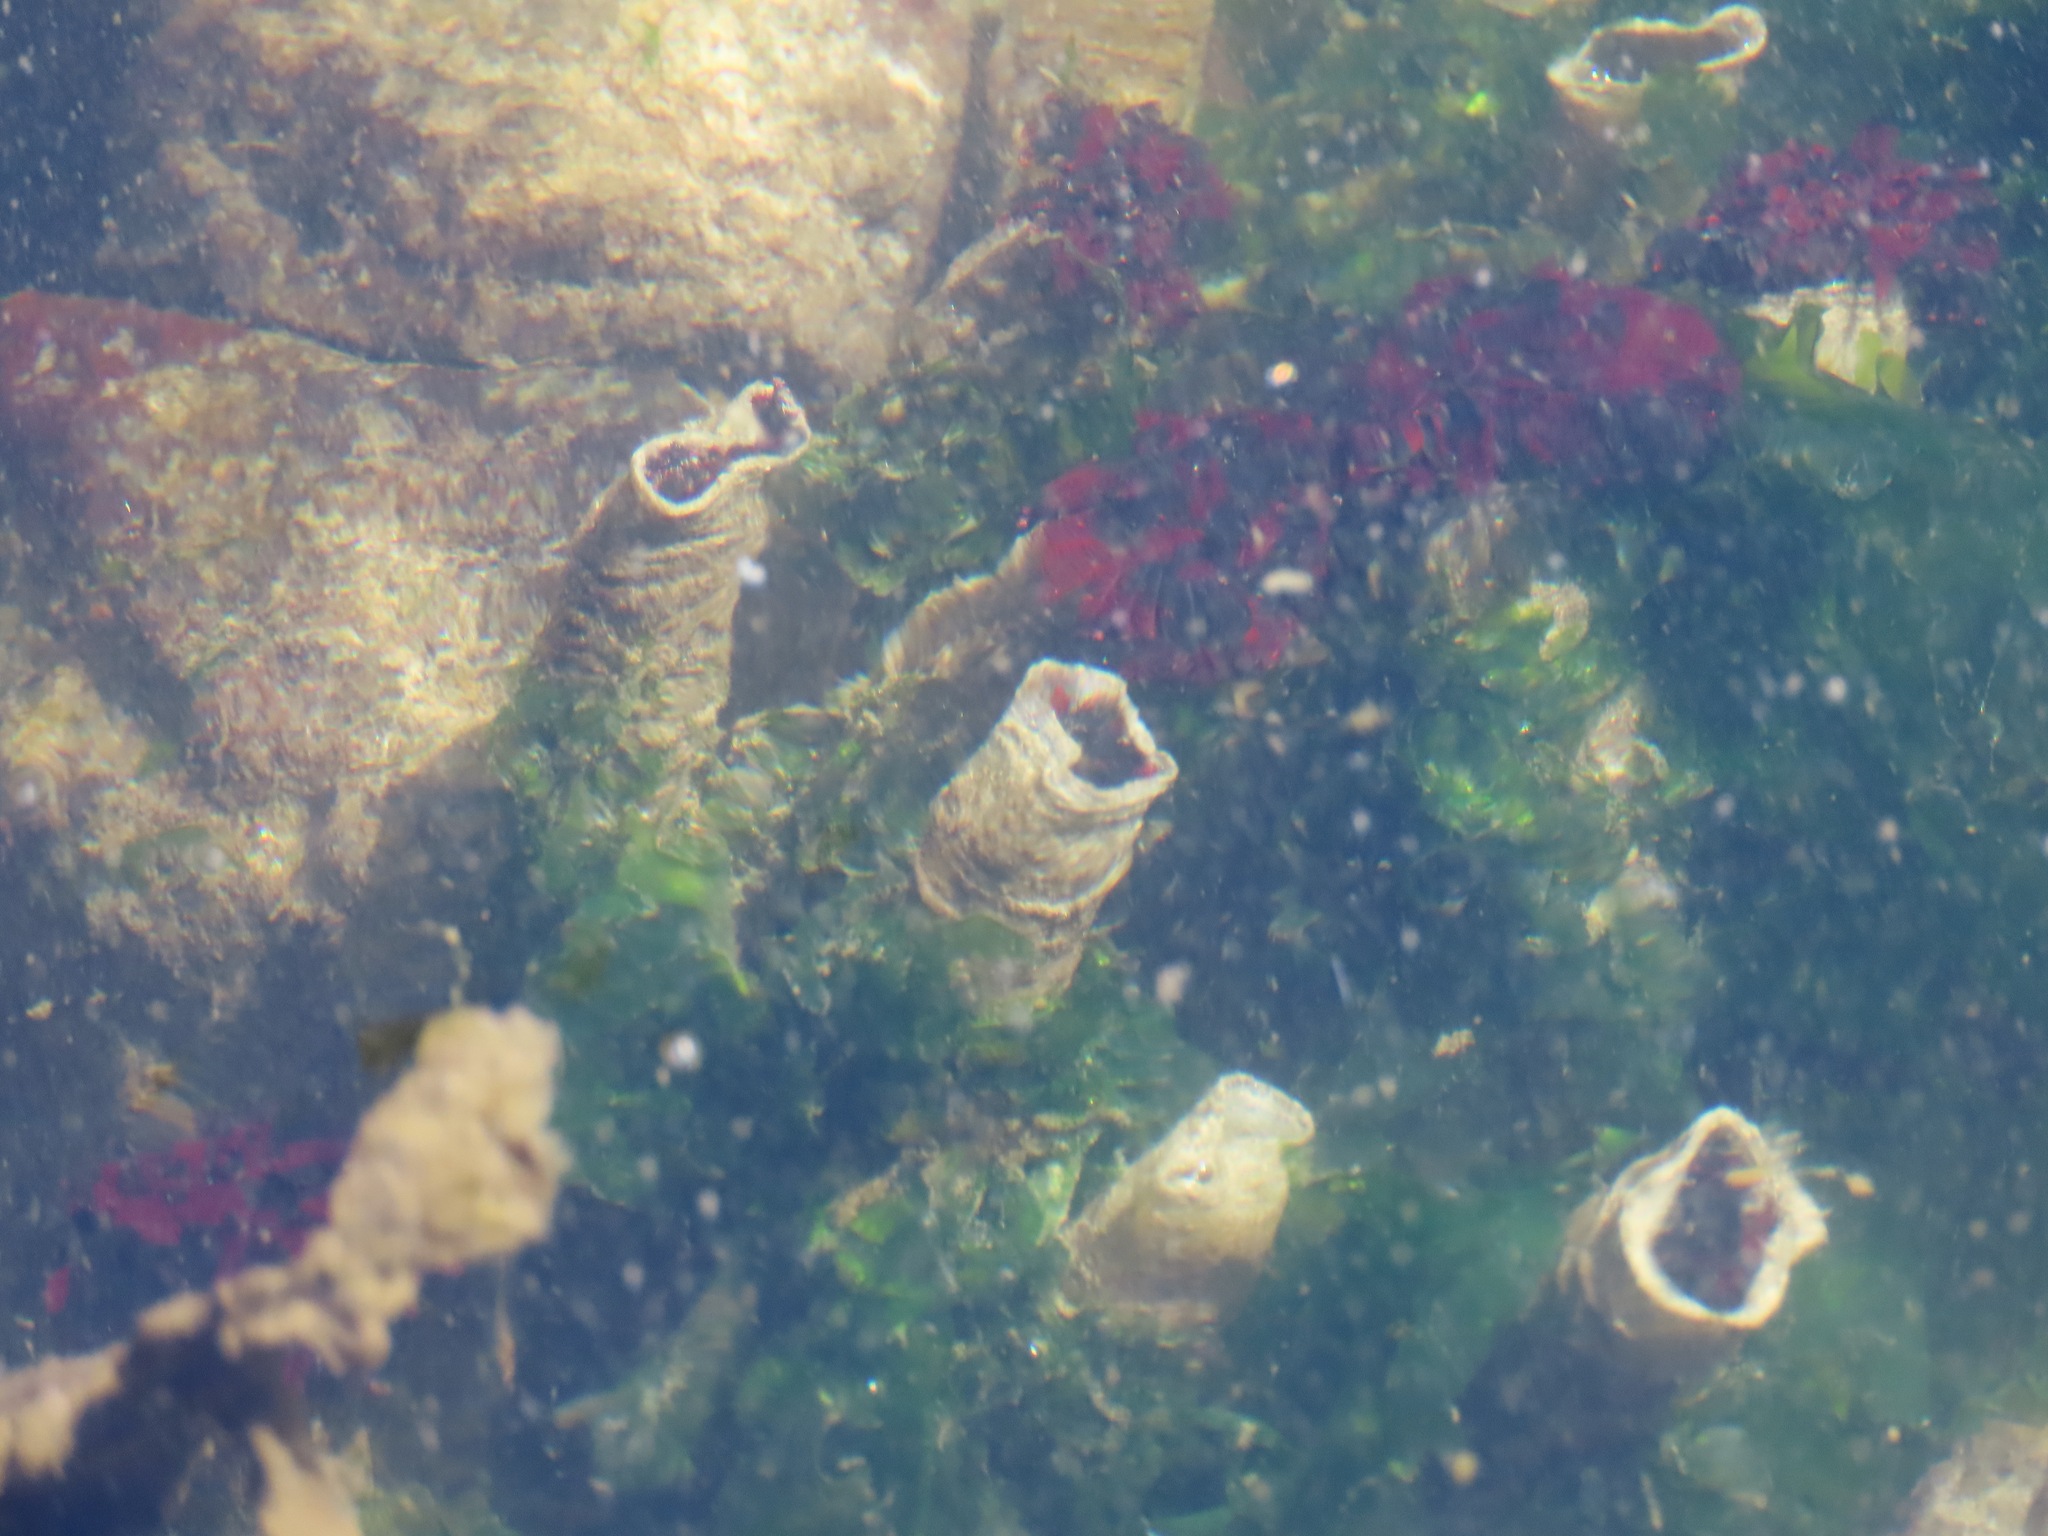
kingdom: Animalia
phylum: Annelida
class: Polychaeta
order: Sabellida
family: Sabellidae
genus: Eudistylia
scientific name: Eudistylia vancouveri
